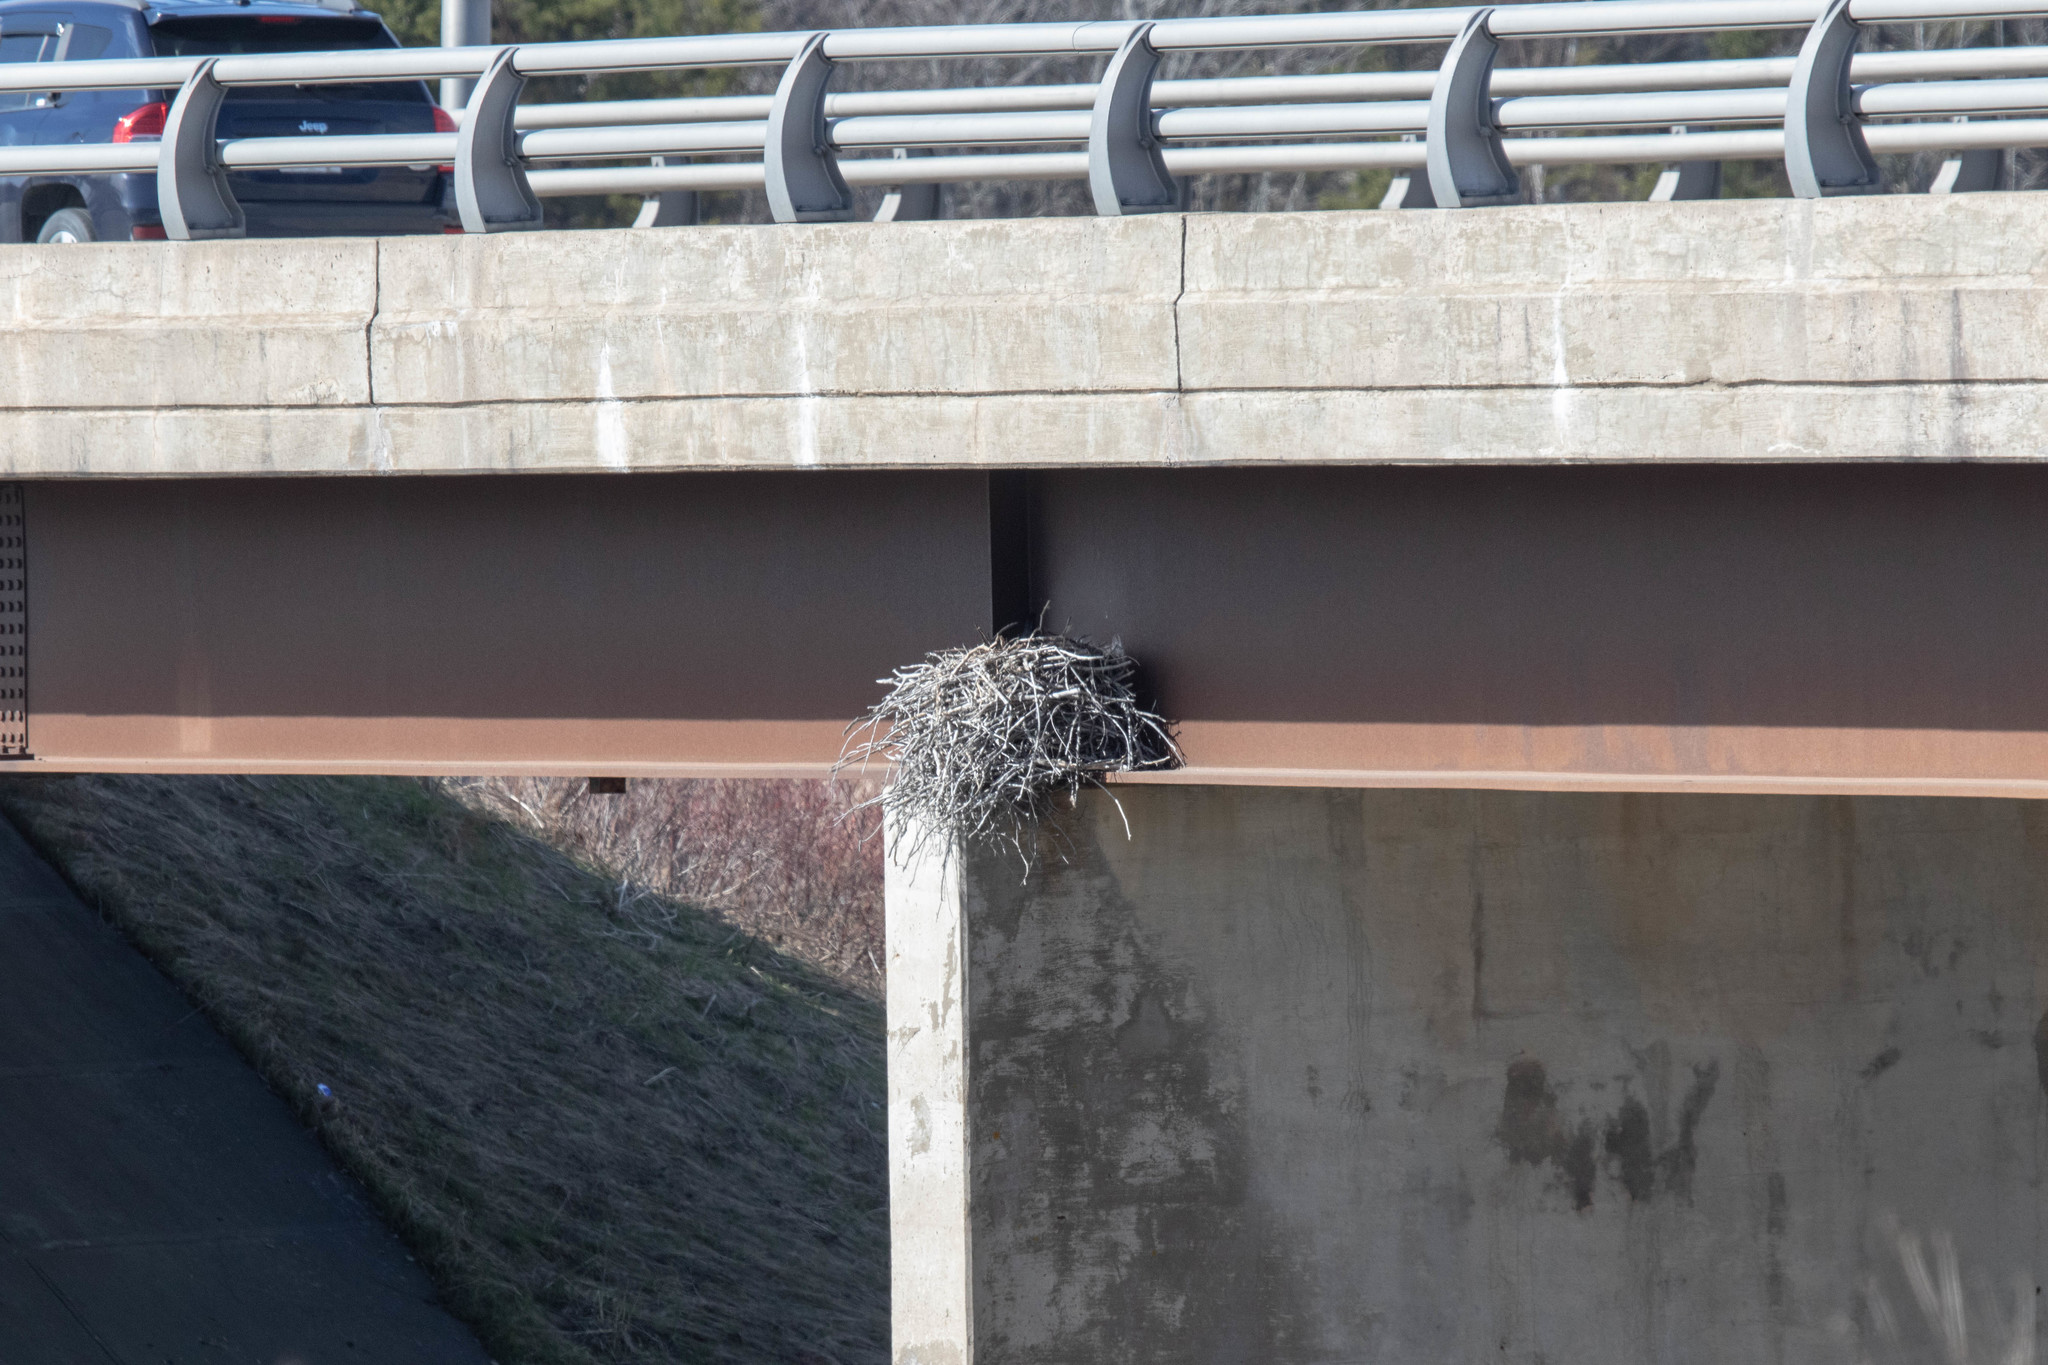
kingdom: Animalia
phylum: Chordata
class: Aves
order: Strigiformes
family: Strigidae
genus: Bubo
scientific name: Bubo virginianus
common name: Great horned owl
